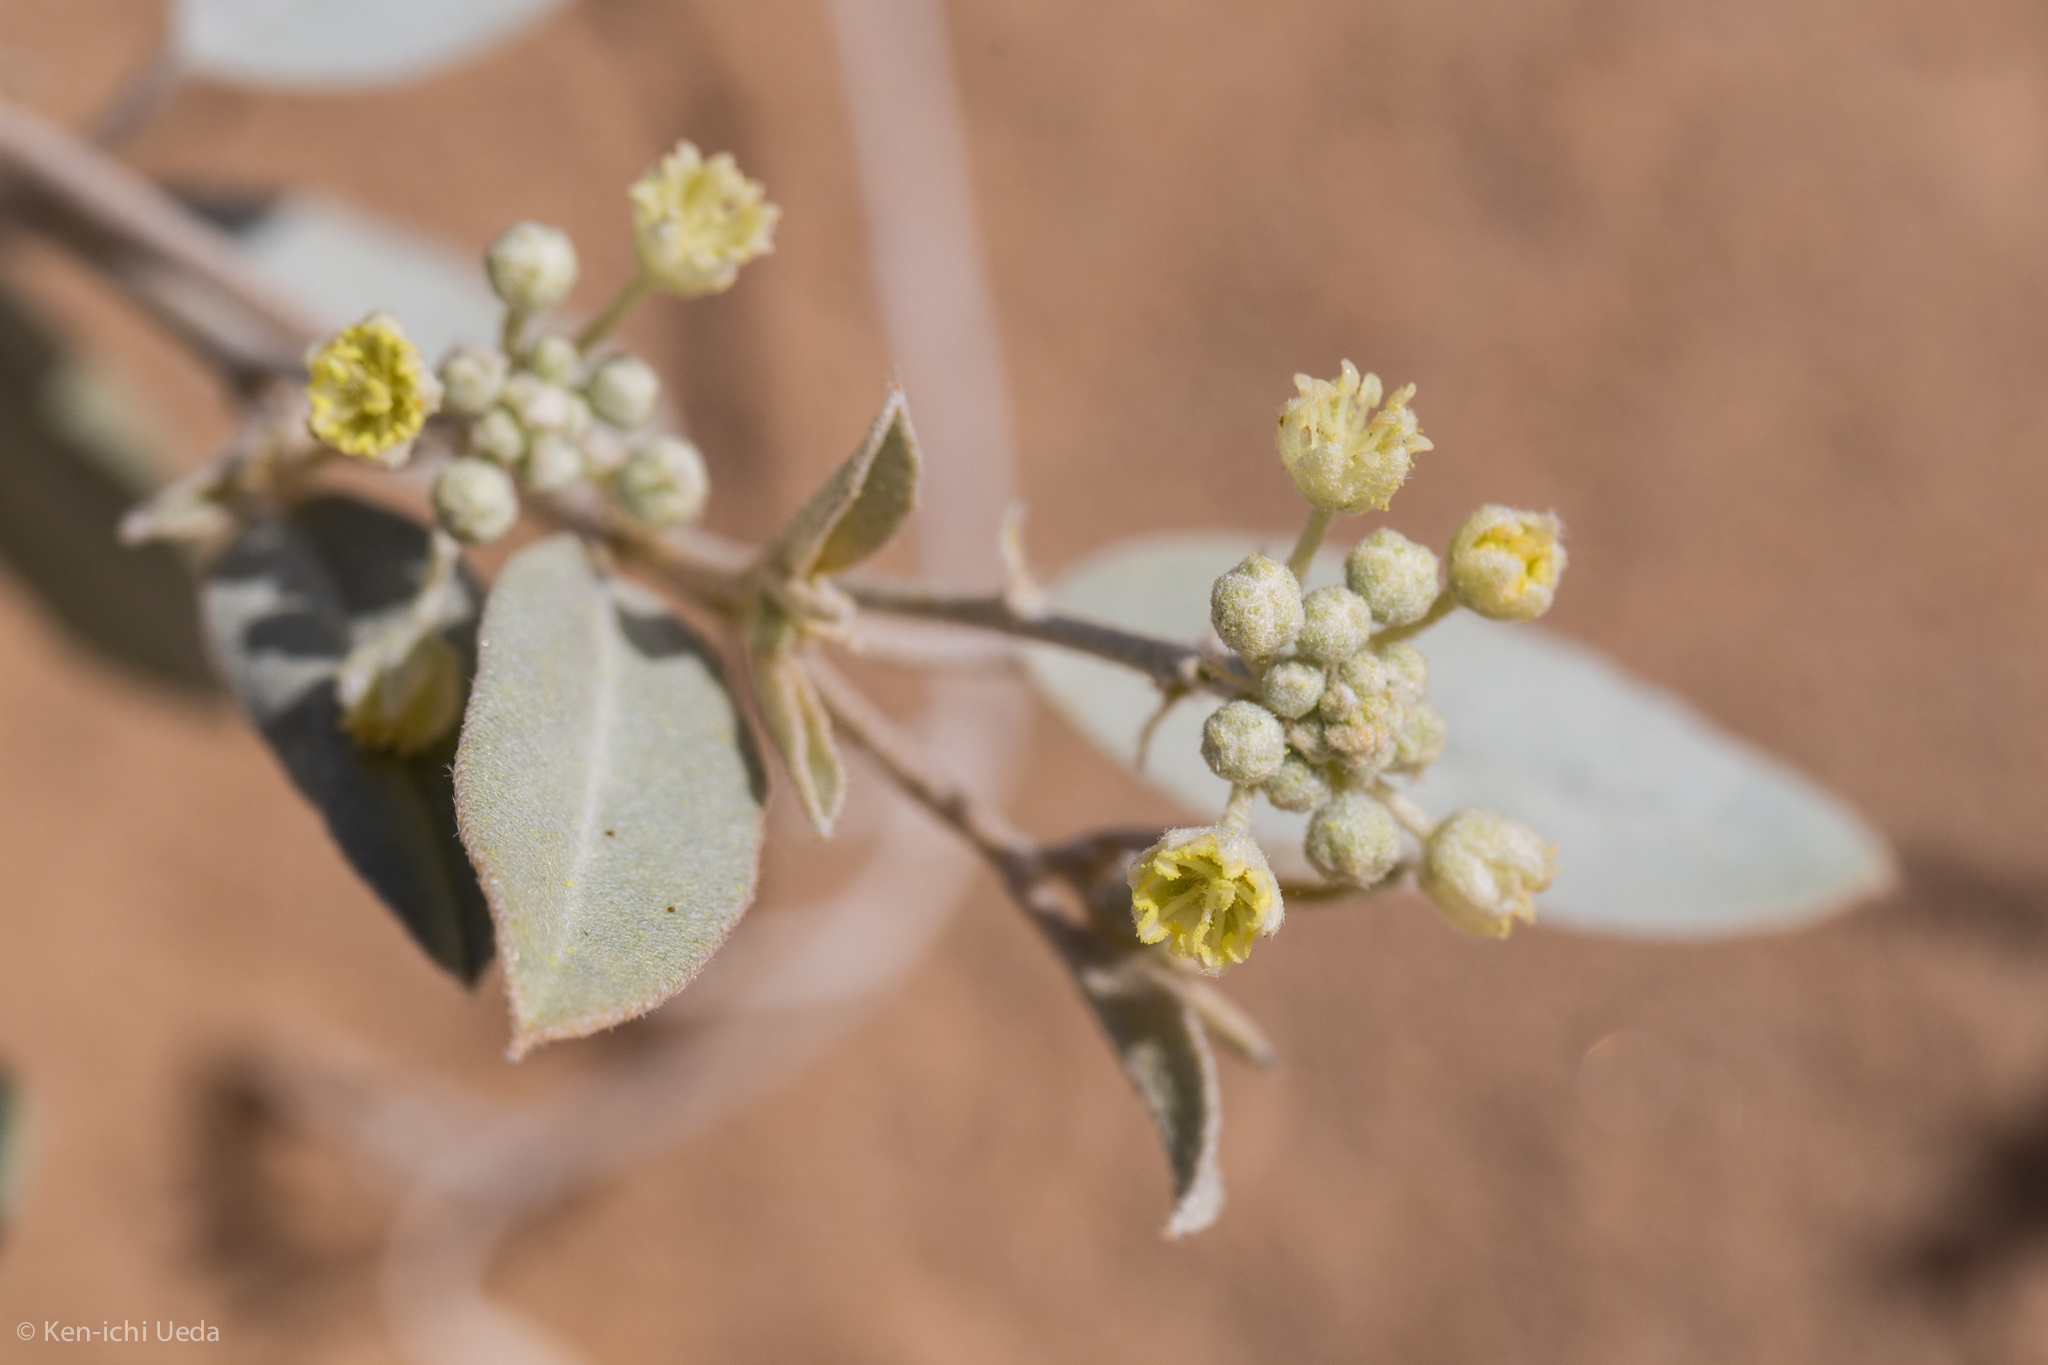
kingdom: Plantae
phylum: Tracheophyta
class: Magnoliopsida
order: Malpighiales
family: Euphorbiaceae
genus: Croton
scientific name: Croton californicus
